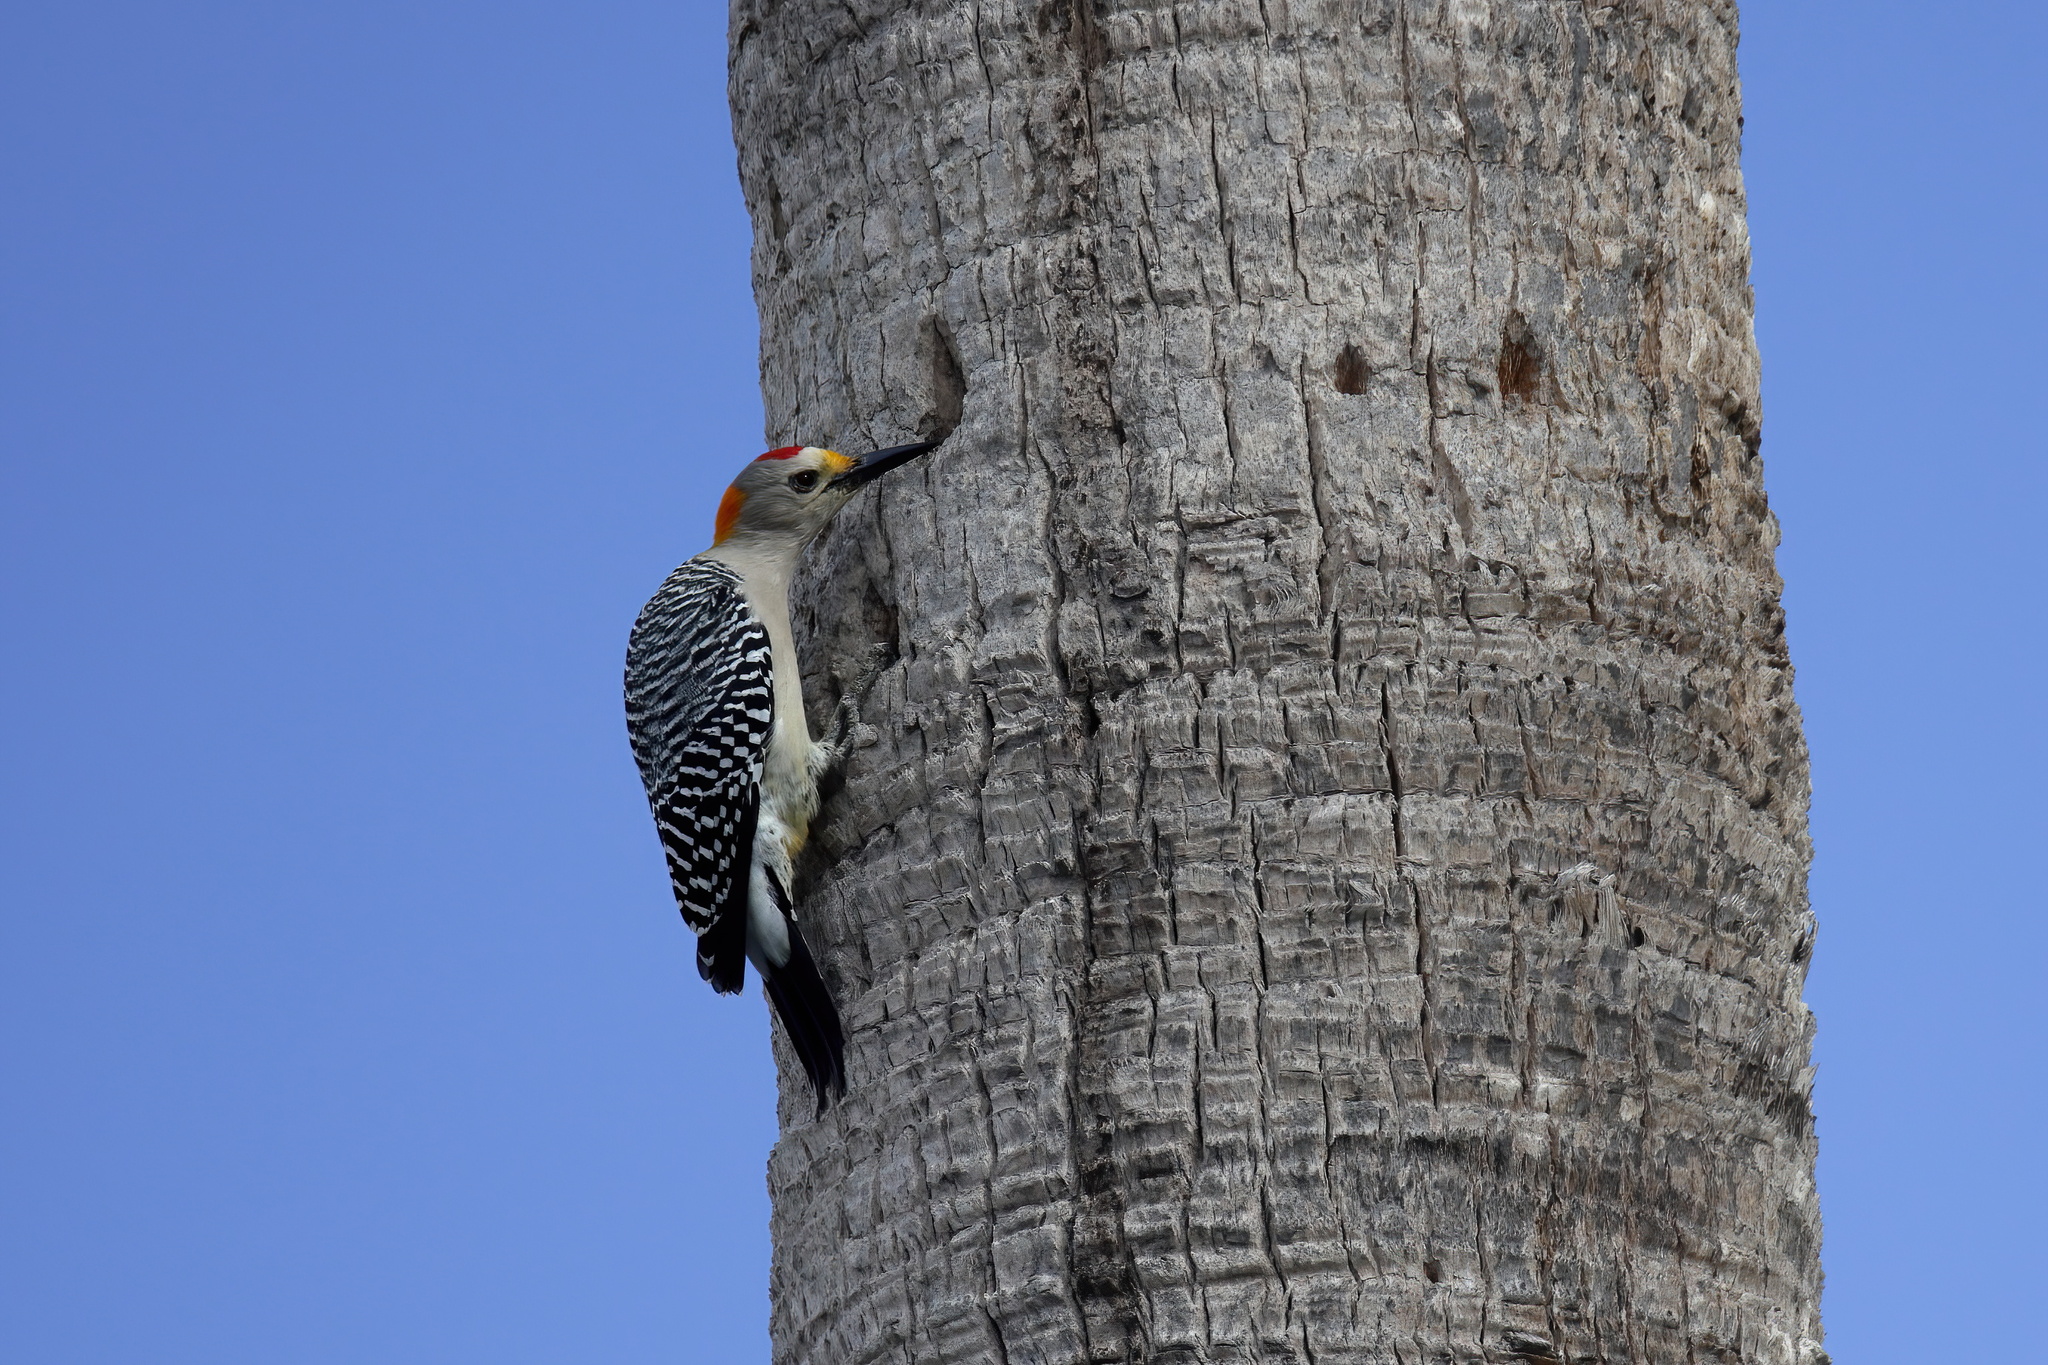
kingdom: Animalia
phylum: Chordata
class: Aves
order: Piciformes
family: Picidae
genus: Melanerpes
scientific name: Melanerpes aurifrons
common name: Golden-fronted woodpecker
